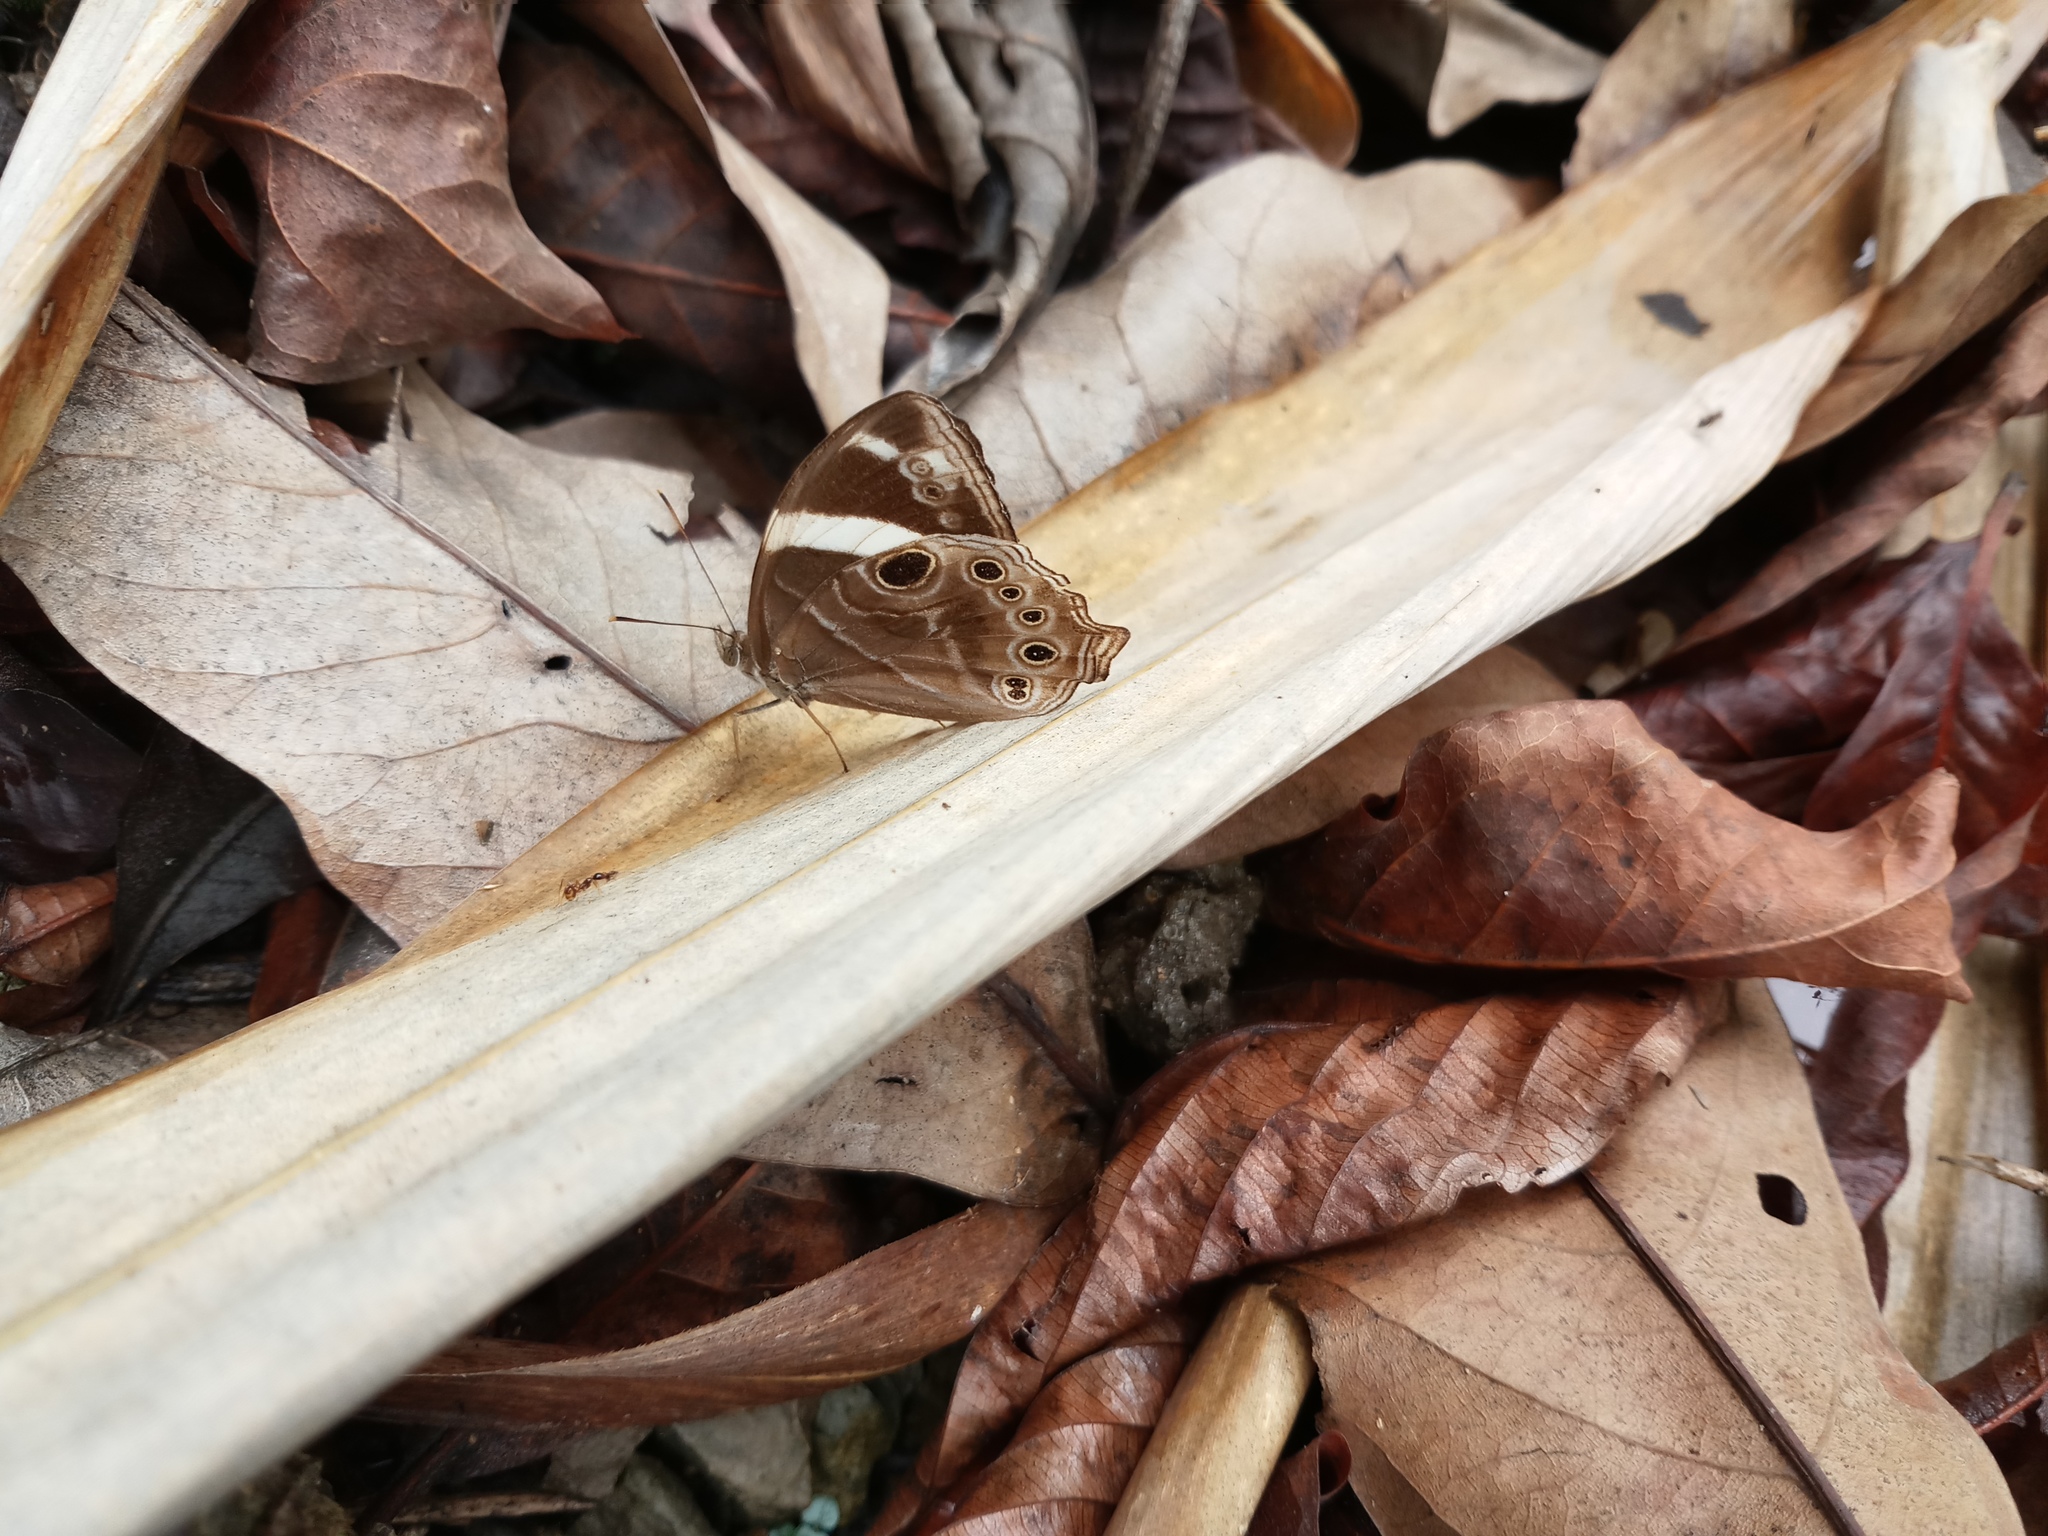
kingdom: Animalia
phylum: Arthropoda
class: Insecta
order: Lepidoptera
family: Nymphalidae
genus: Lethe
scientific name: Lethe confusa
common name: Banded treebrown
